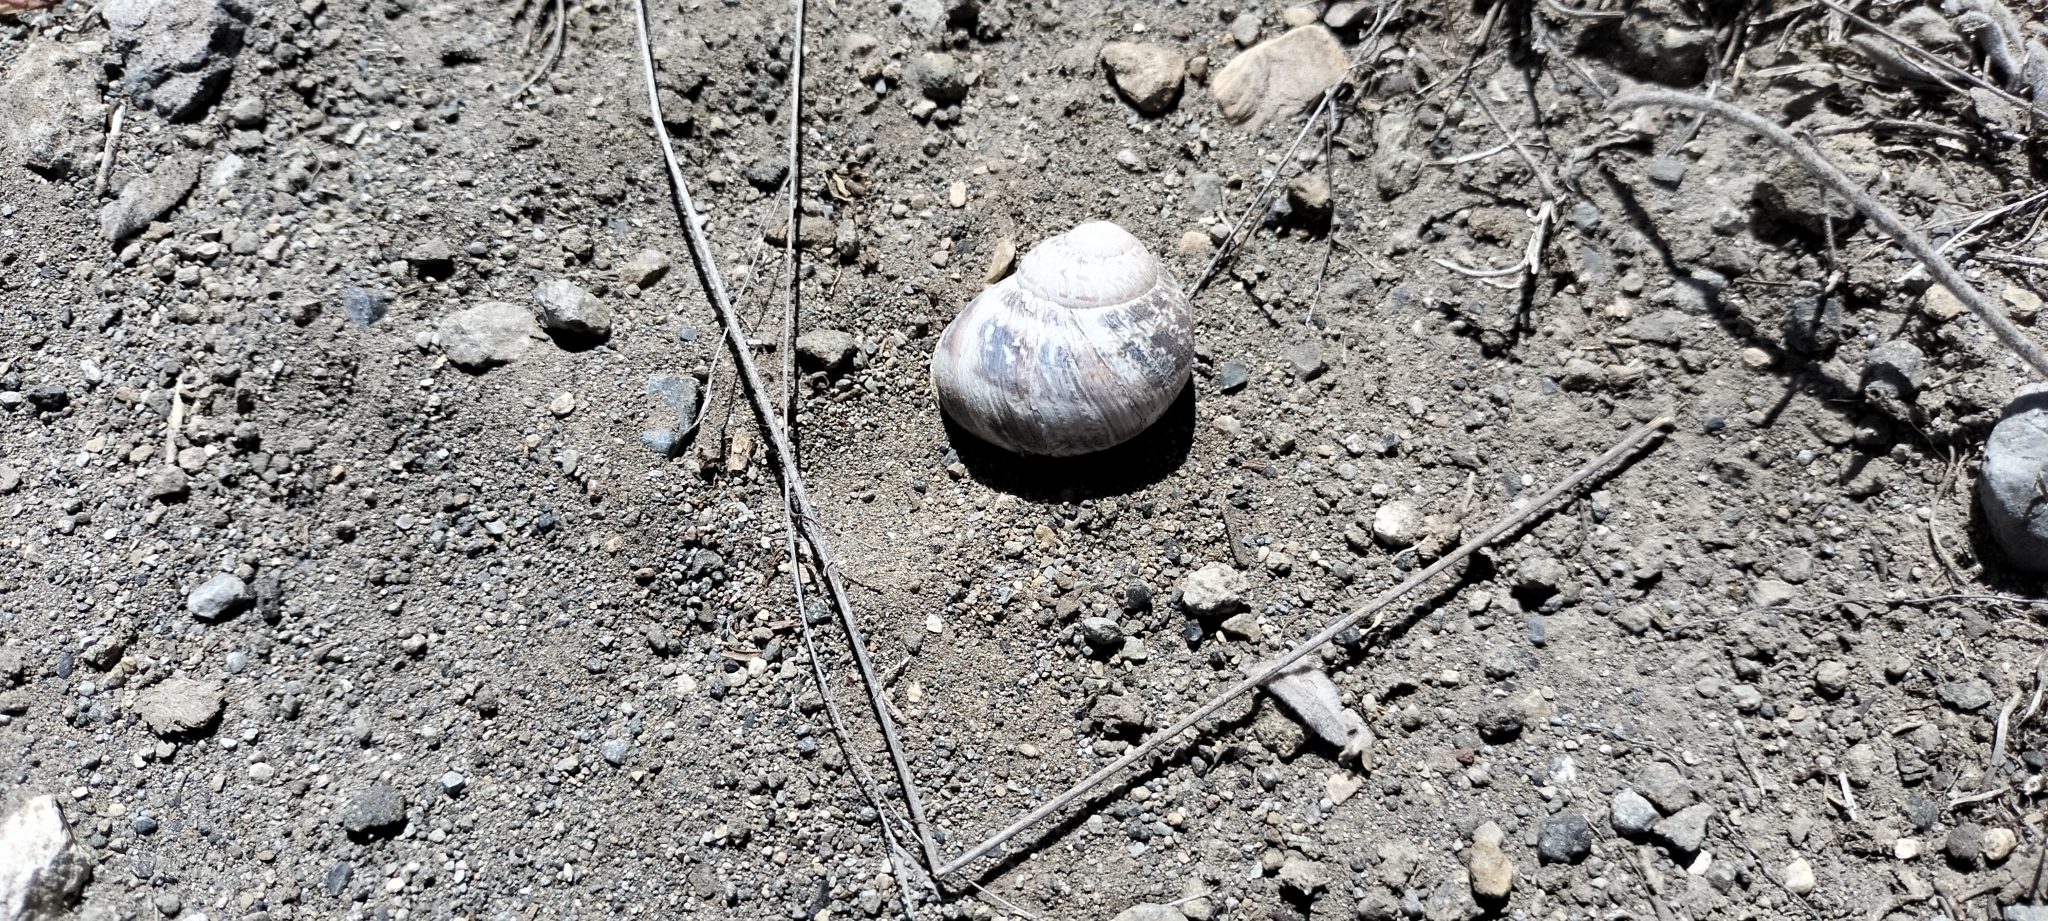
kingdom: Animalia
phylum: Mollusca
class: Gastropoda
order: Stylommatophora
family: Helicidae
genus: Cornu
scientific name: Cornu aspersum
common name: Brown garden snail
